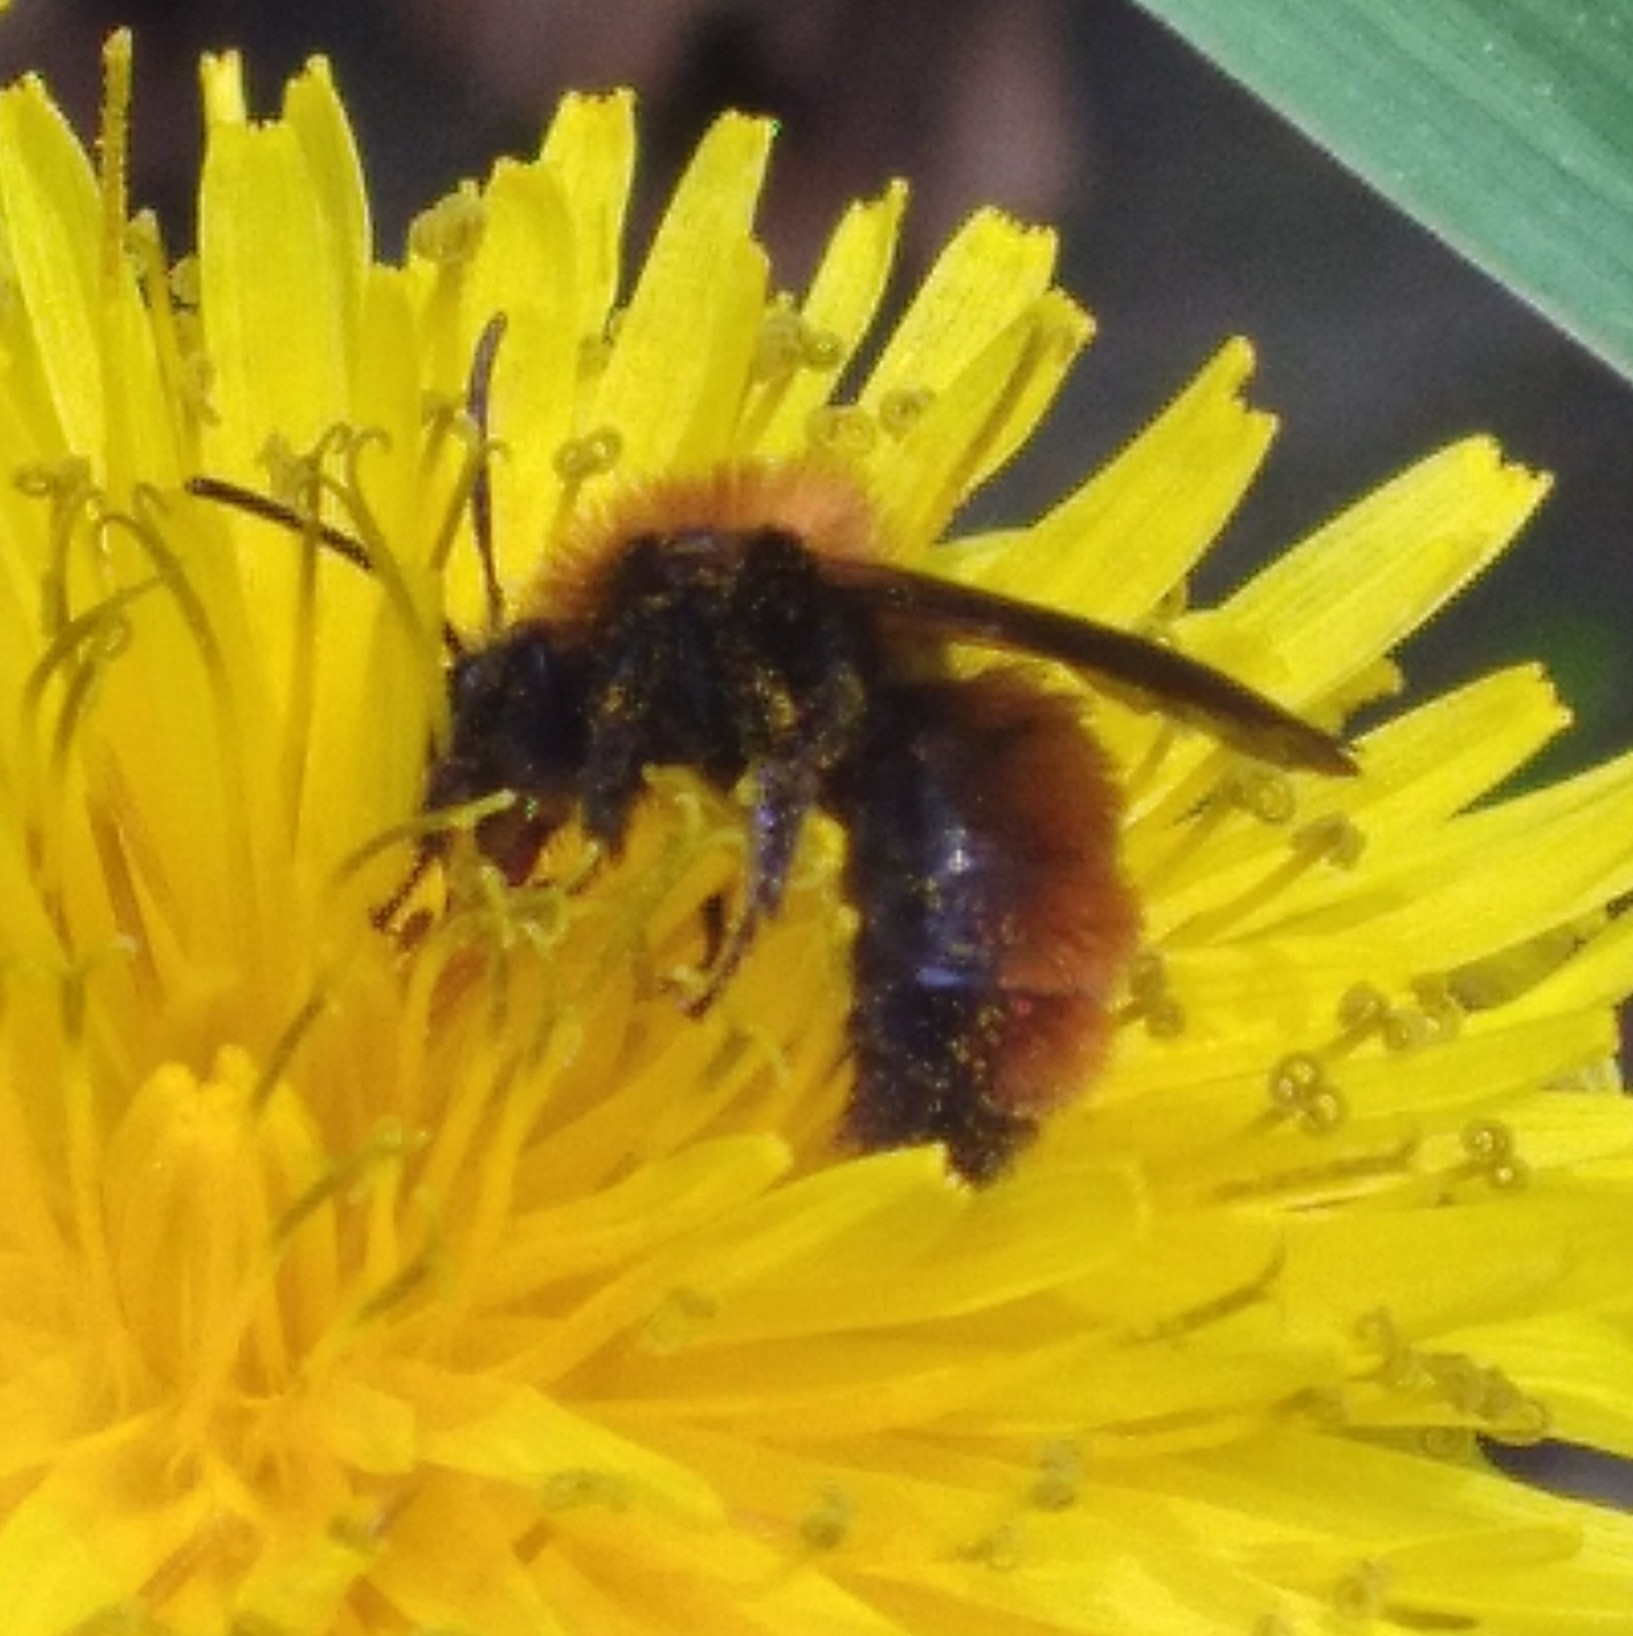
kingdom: Animalia
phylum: Arthropoda
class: Insecta
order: Hymenoptera
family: Andrenidae
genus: Andrena
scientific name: Andrena milwaukeensis
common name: Milwaukee mining bee
